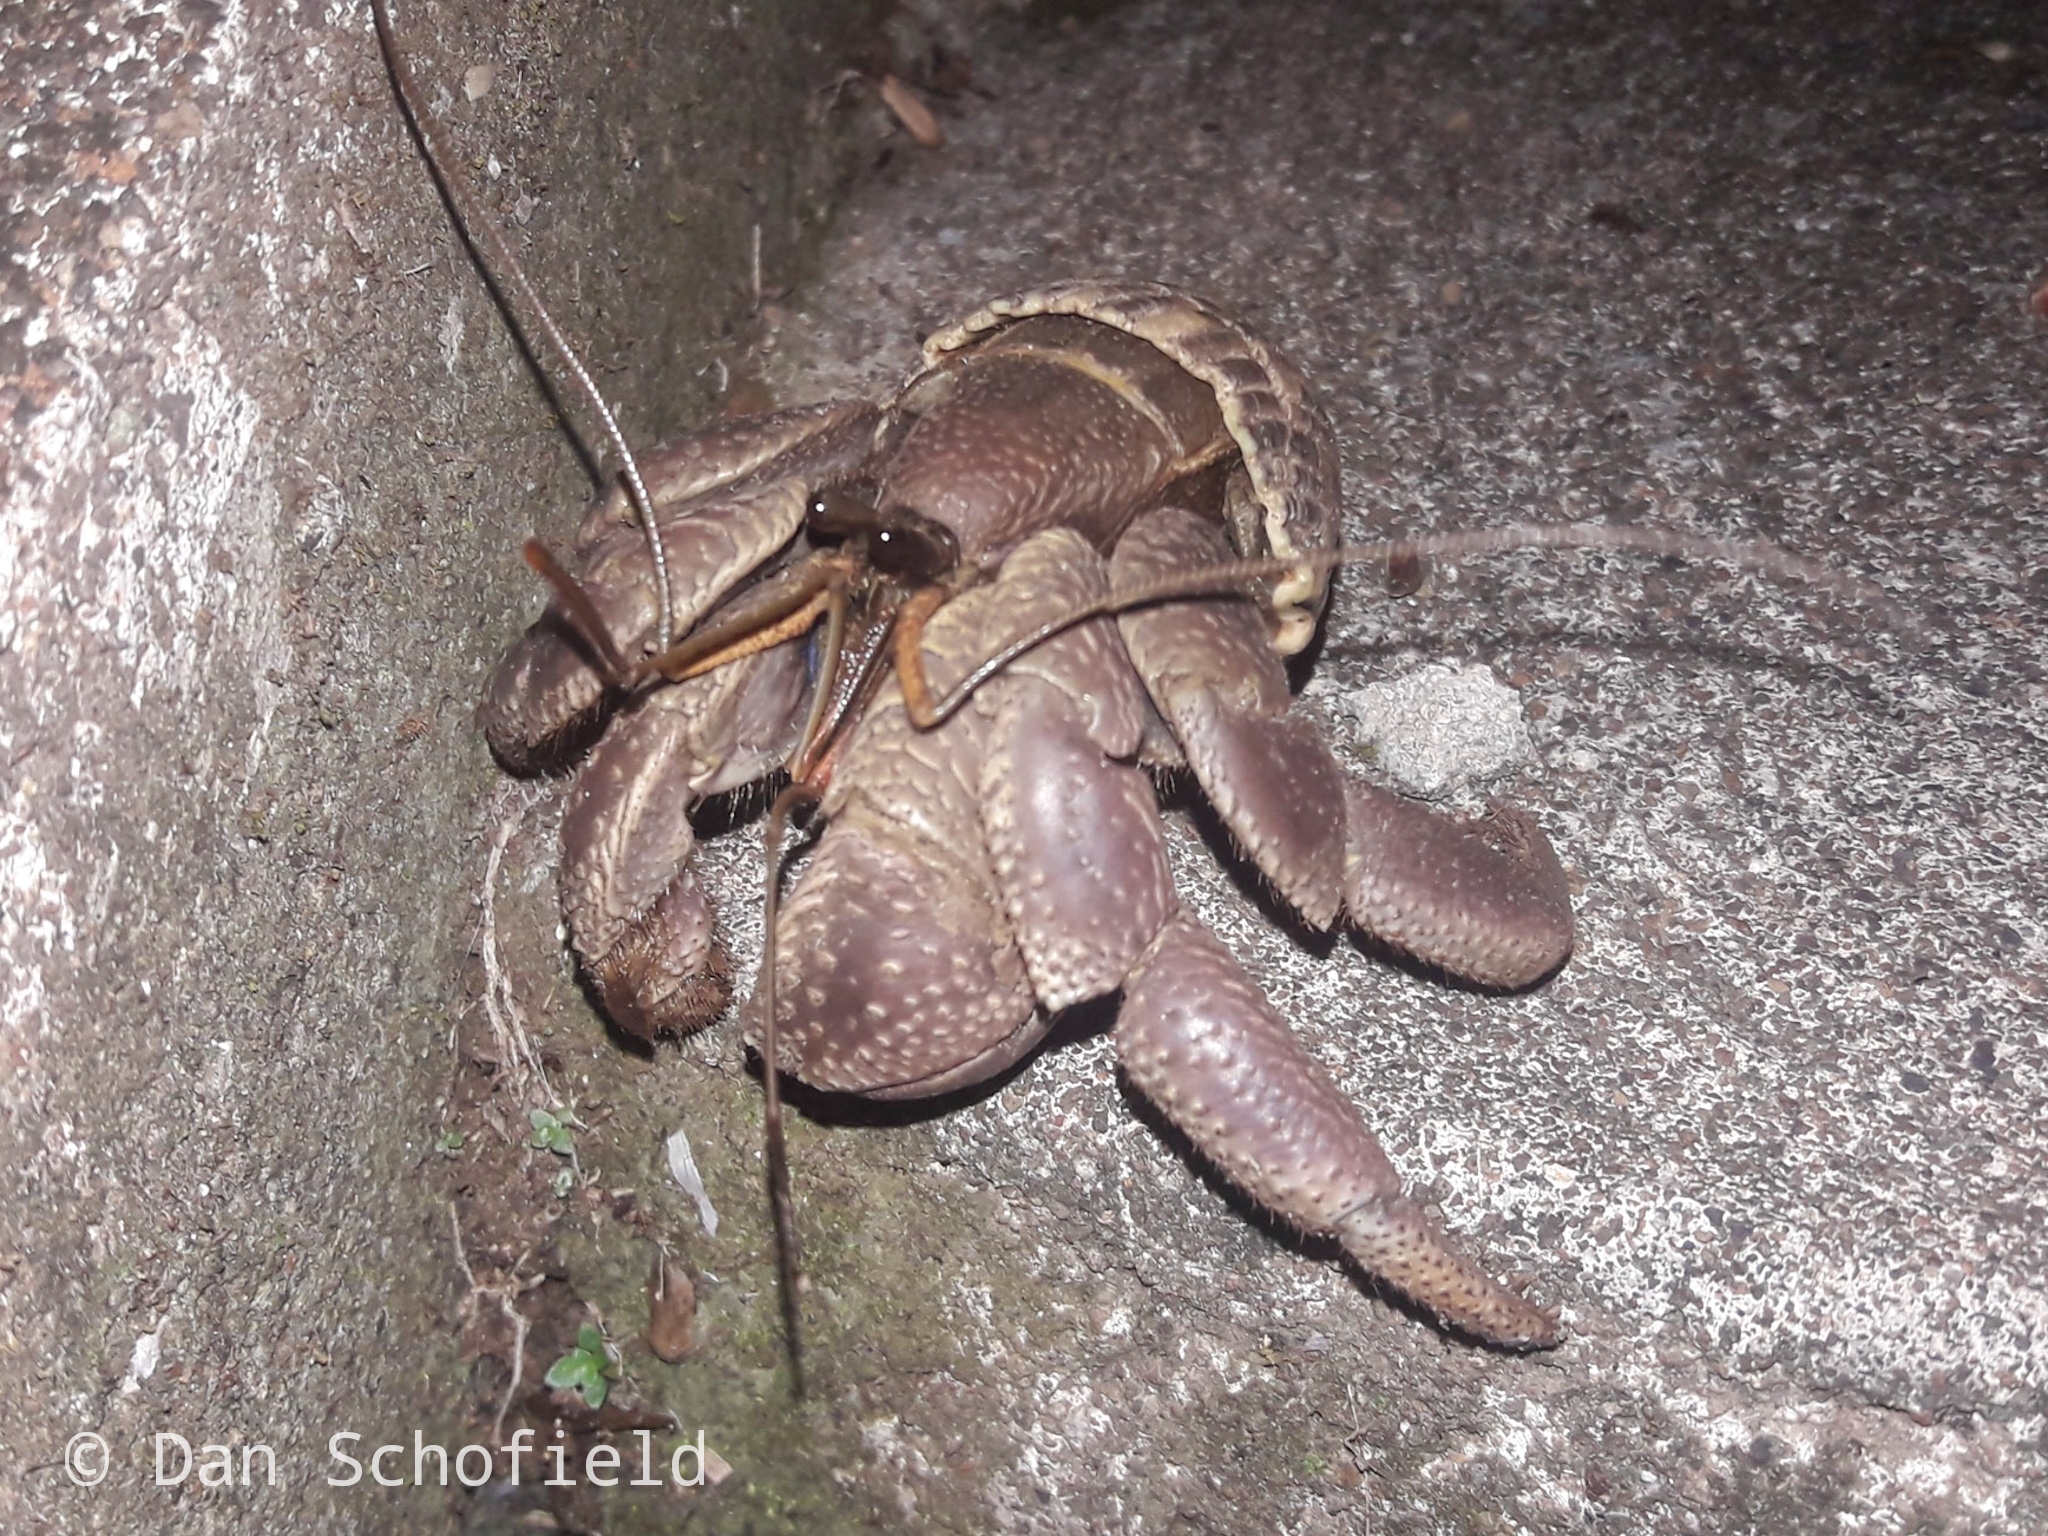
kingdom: Animalia
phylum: Arthropoda
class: Malacostraca
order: Decapoda
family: Coenobitidae
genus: Coenobita
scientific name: Coenobita brevimanus
